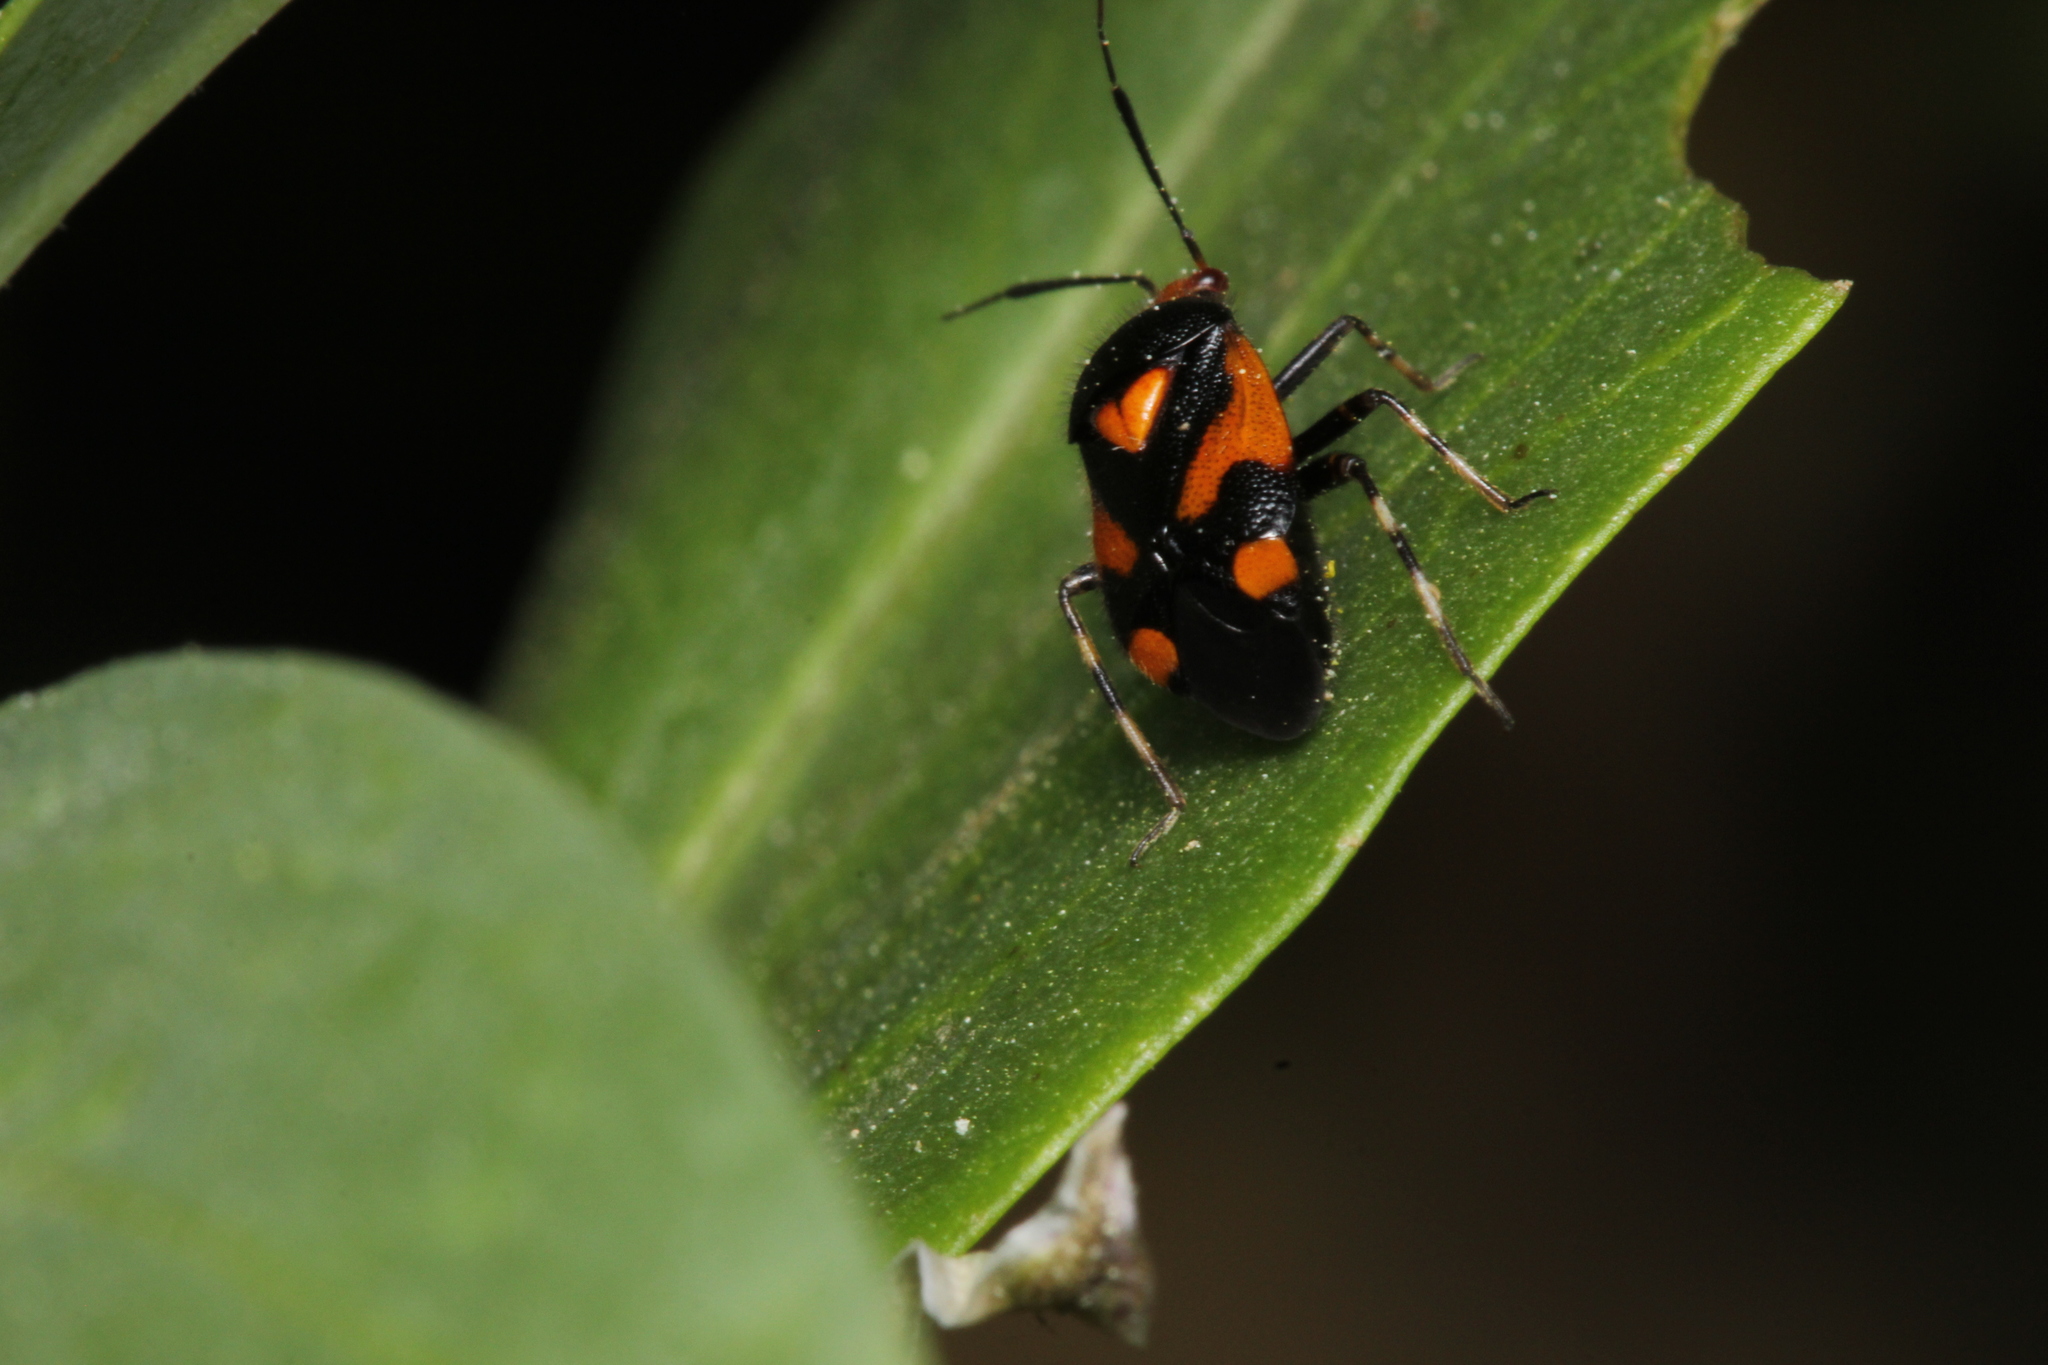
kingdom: Animalia
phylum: Arthropoda
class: Insecta
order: Hemiptera
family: Miridae
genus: Deraeocoris
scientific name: Deraeocoris schach
